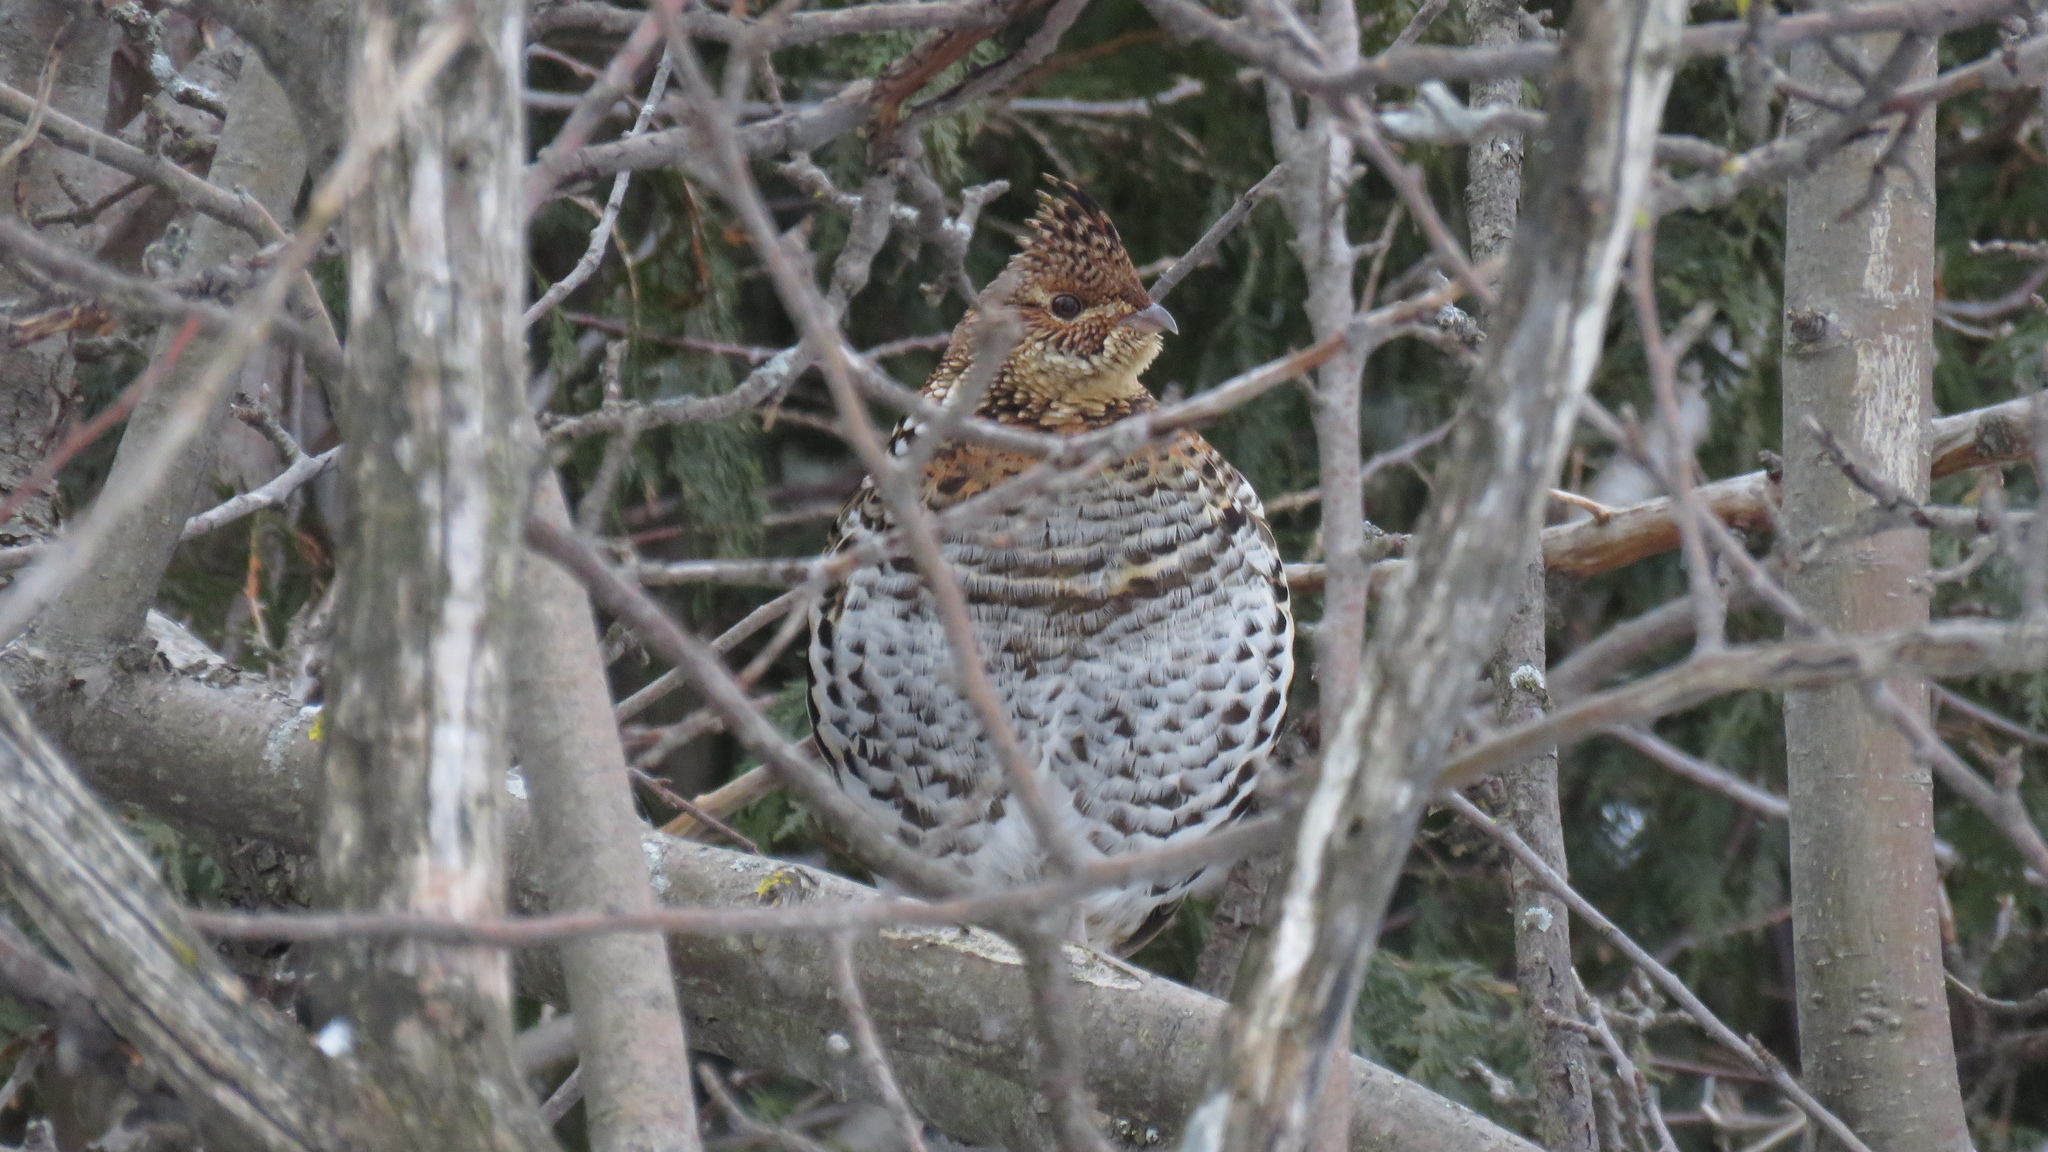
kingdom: Animalia
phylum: Chordata
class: Aves
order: Galliformes
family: Phasianidae
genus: Bonasa
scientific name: Bonasa umbellus
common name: Ruffed grouse
